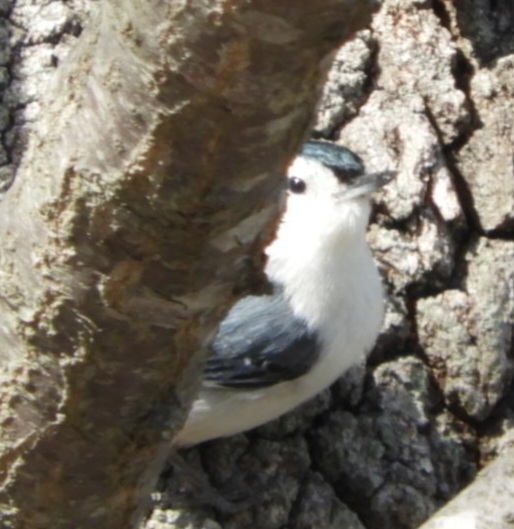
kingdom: Animalia
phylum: Chordata
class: Aves
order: Passeriformes
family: Sittidae
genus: Sitta
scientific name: Sitta carolinensis
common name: White-breasted nuthatch
